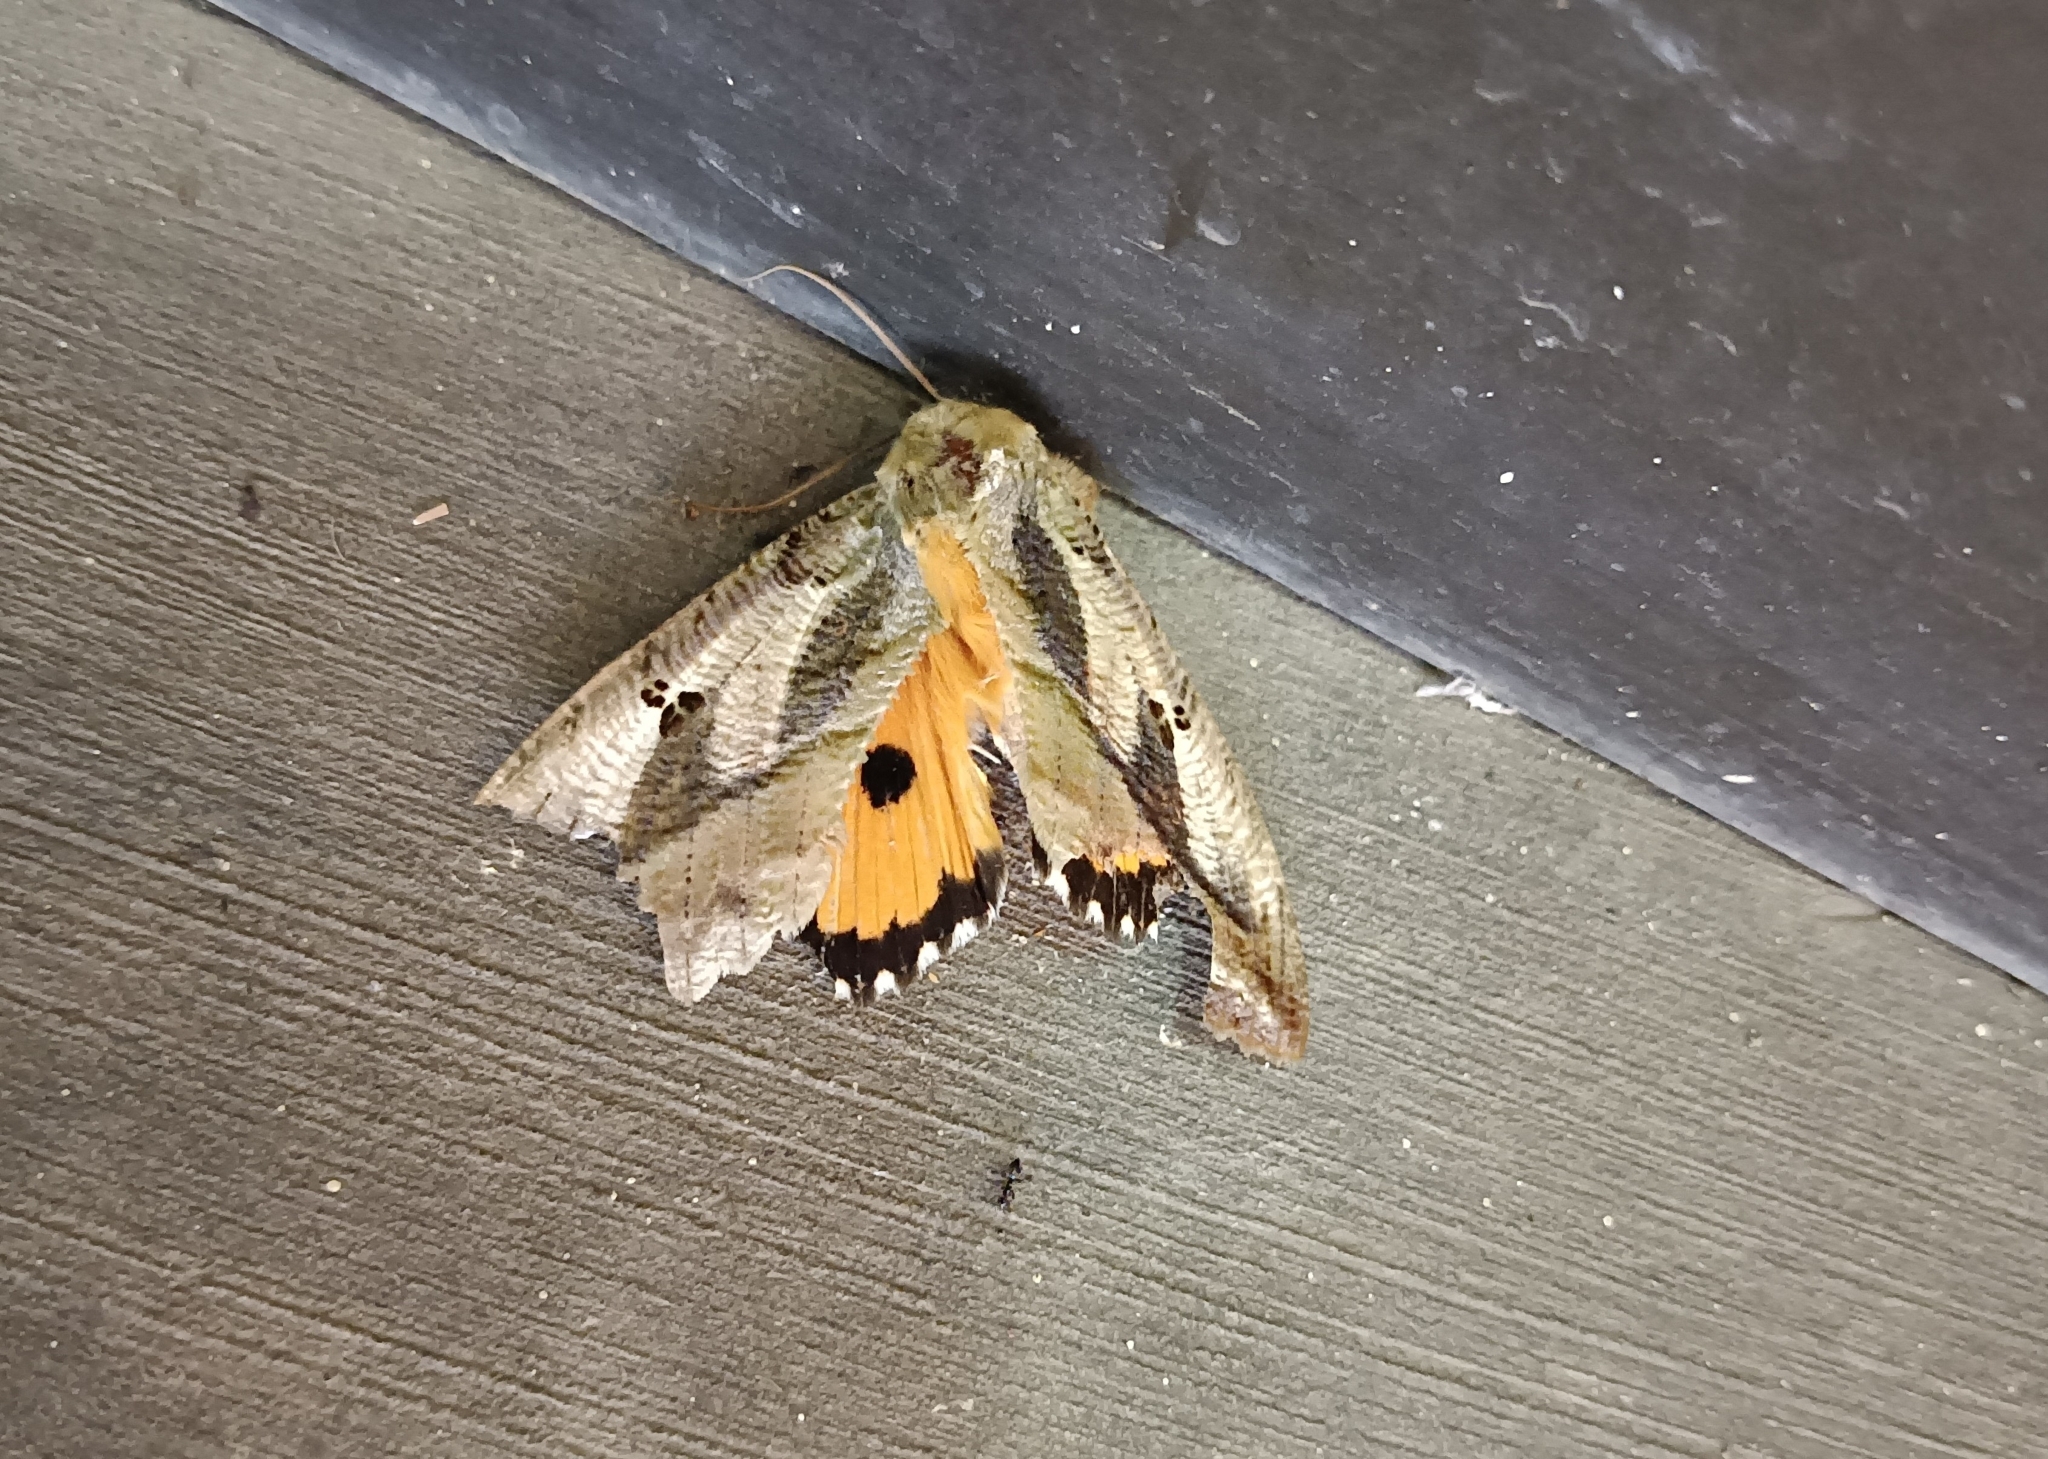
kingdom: Animalia
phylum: Arthropoda
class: Insecta
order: Lepidoptera
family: Erebidae
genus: Eudocima
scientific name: Eudocima materna
